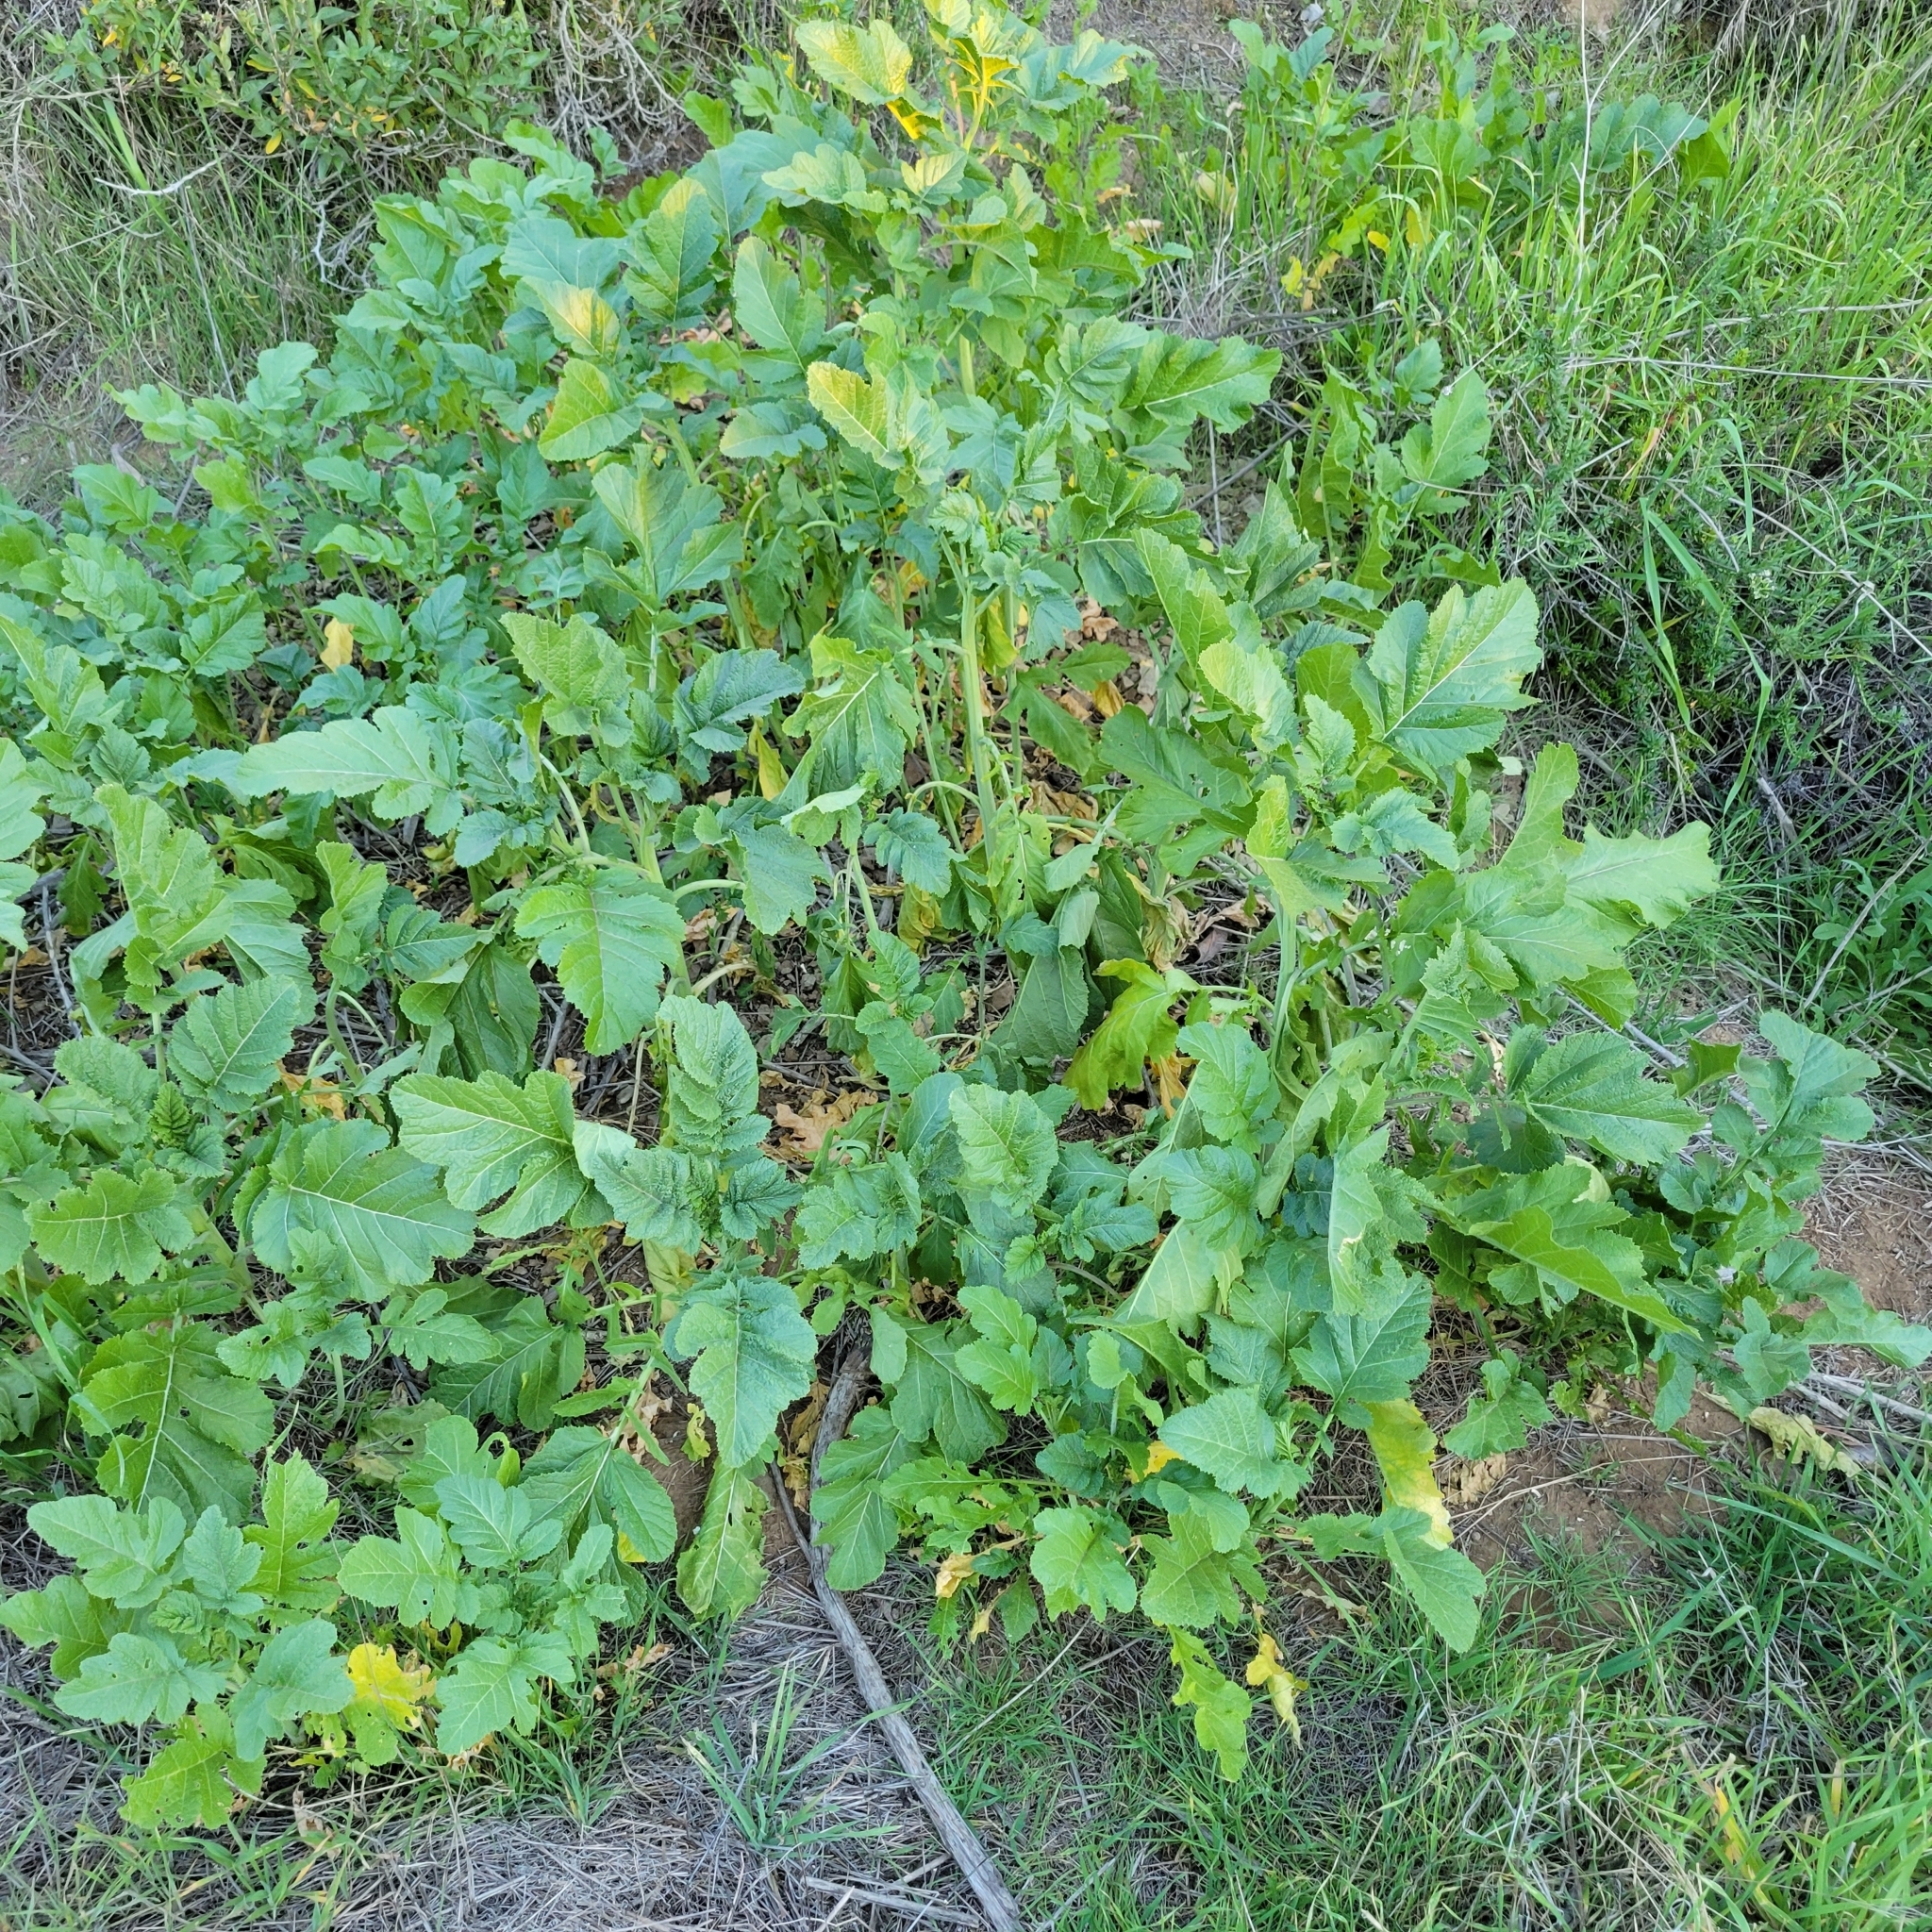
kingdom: Plantae
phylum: Tracheophyta
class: Magnoliopsida
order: Brassicales
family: Brassicaceae
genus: Brassica
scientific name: Brassica nigra
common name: Black mustard
